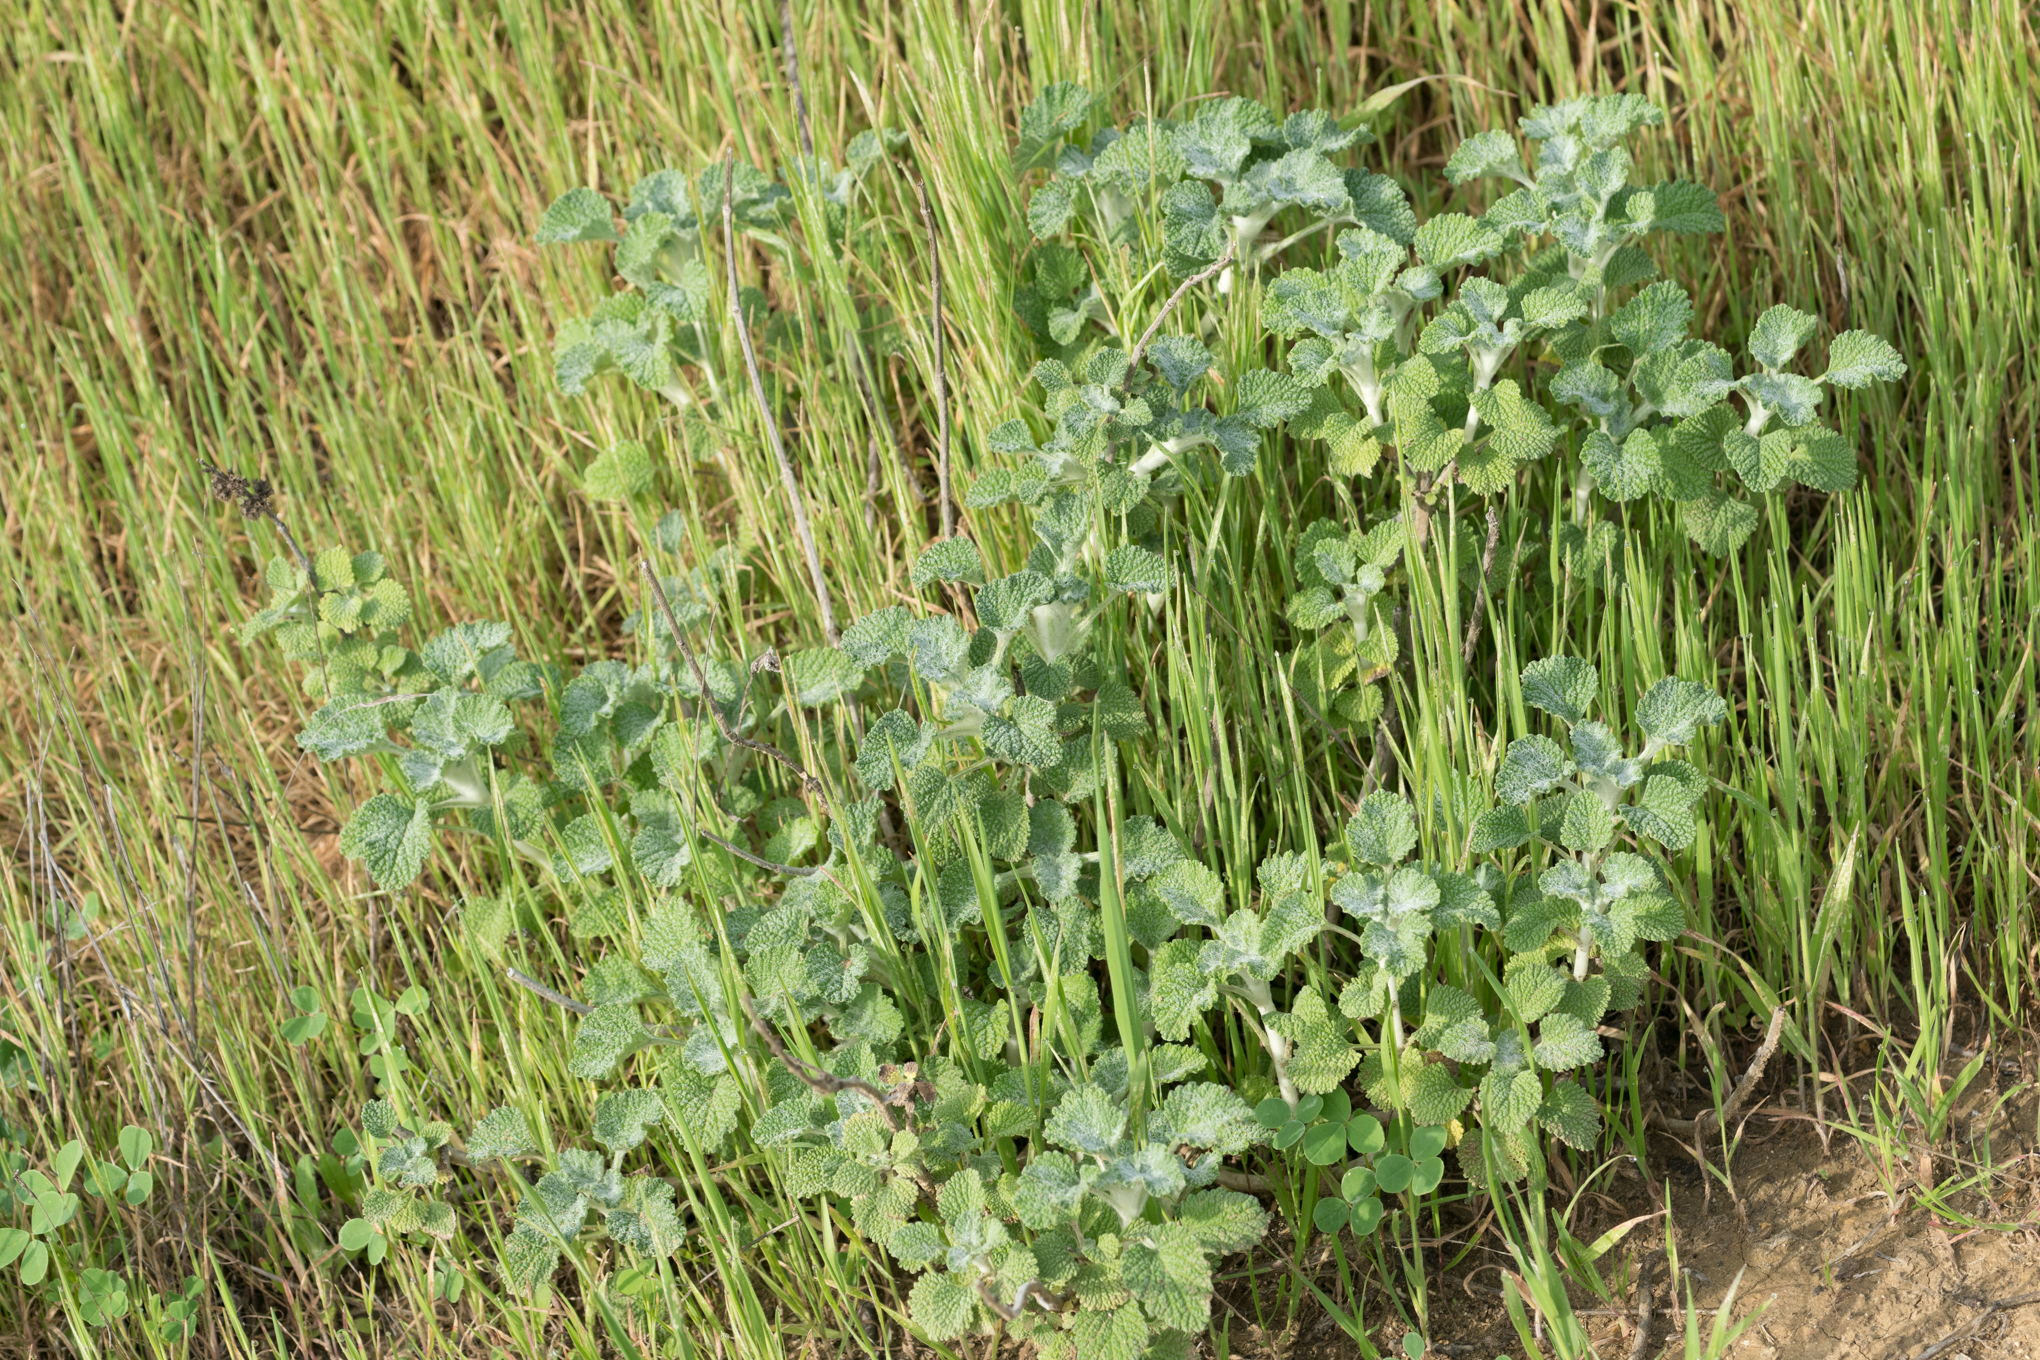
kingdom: Plantae
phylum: Tracheophyta
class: Magnoliopsida
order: Lamiales
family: Lamiaceae
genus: Marrubium
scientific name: Marrubium vulgare
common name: Horehound
